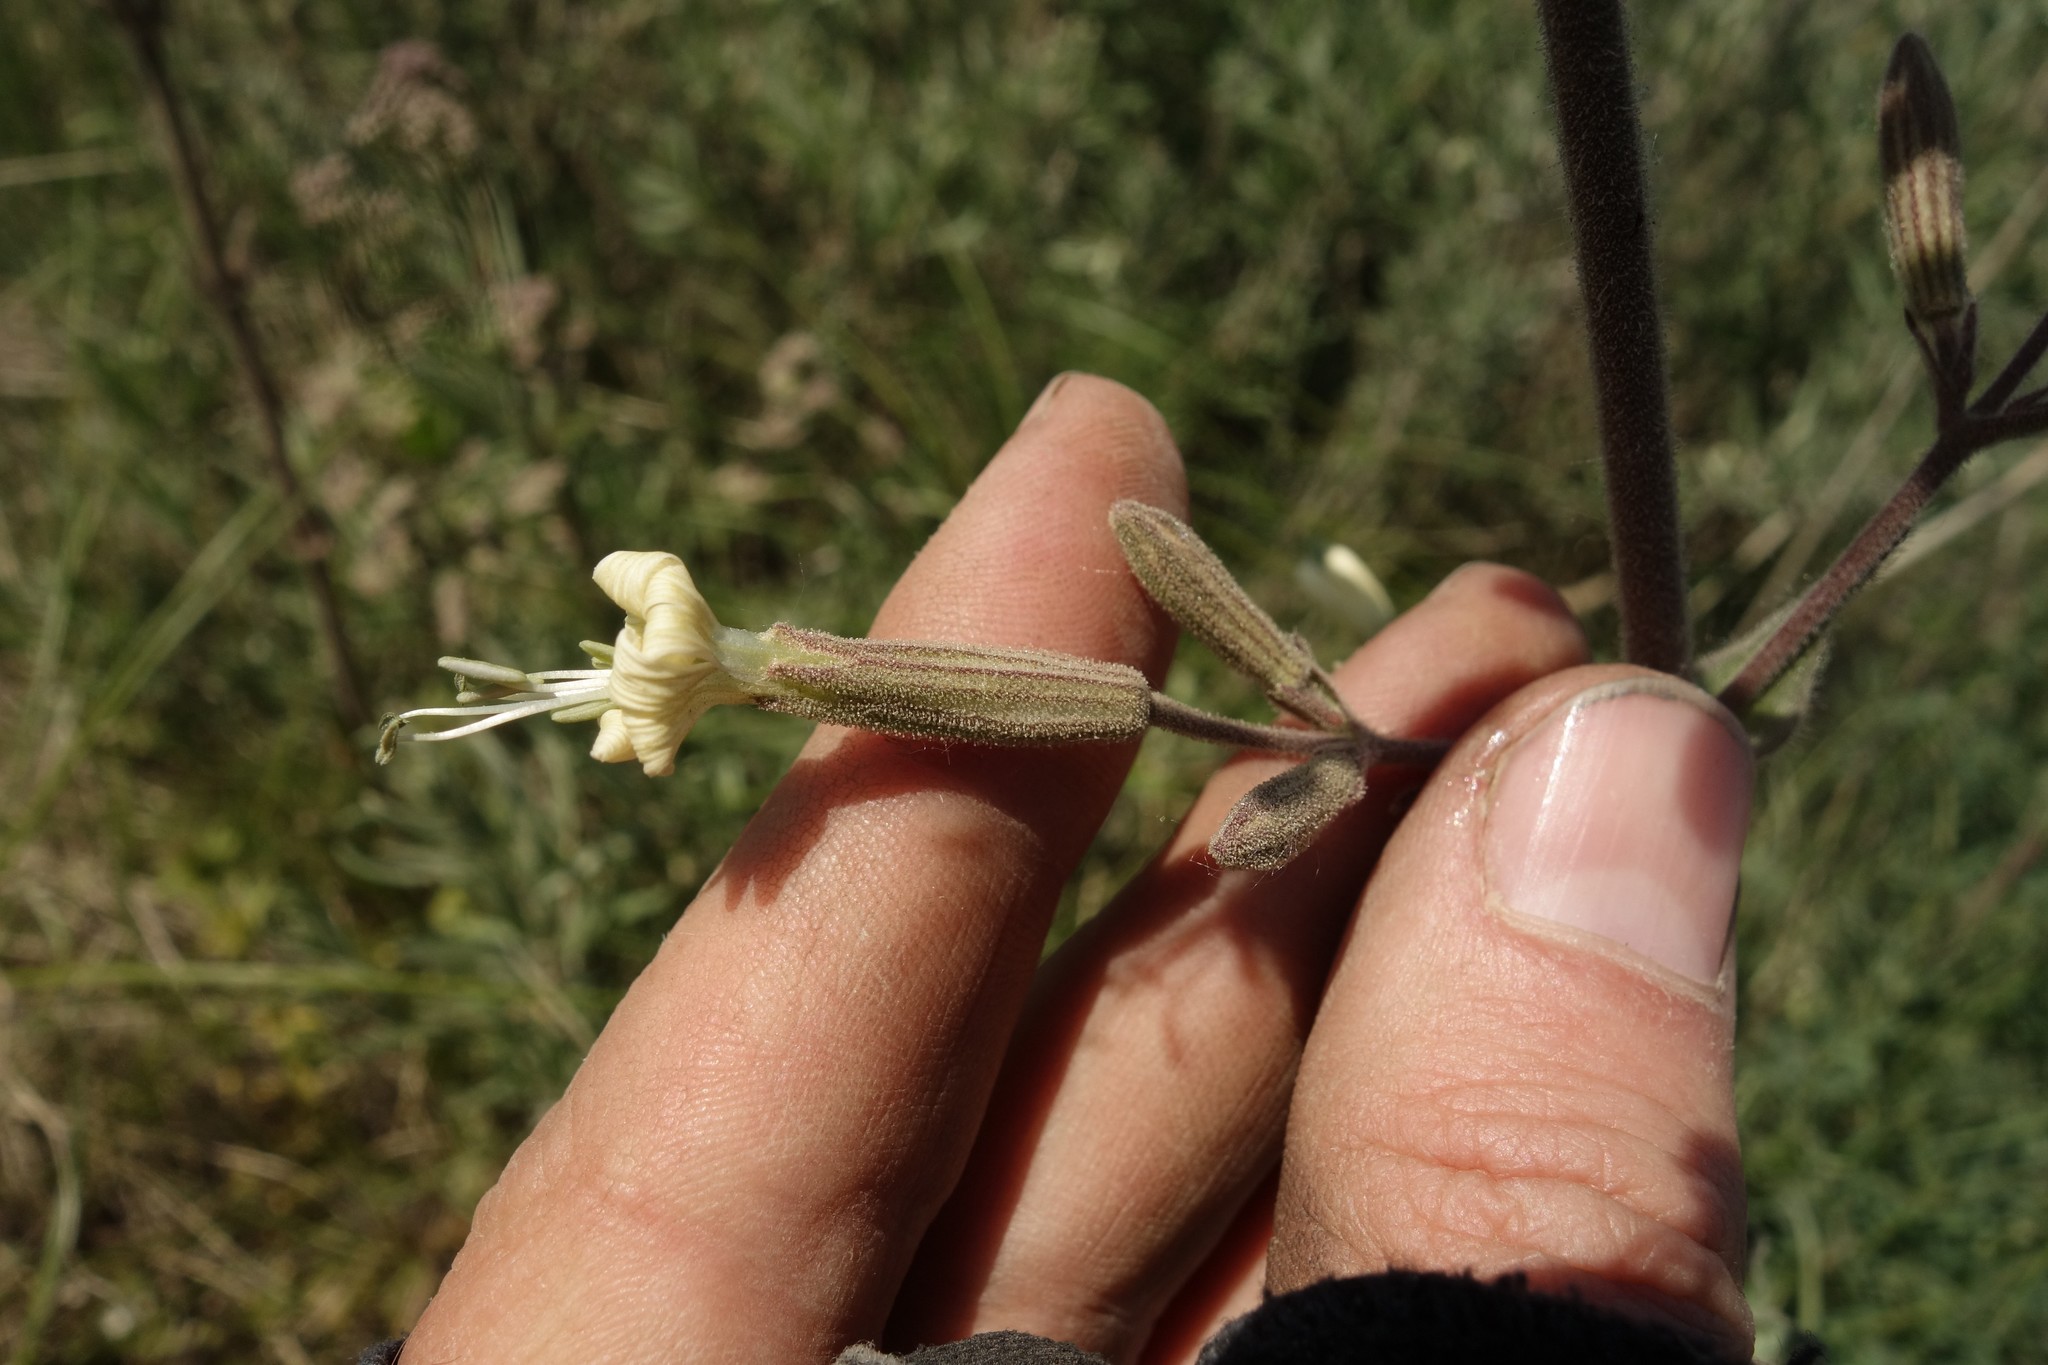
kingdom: Plantae
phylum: Tracheophyta
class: Magnoliopsida
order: Caryophyllales
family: Caryophyllaceae
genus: Silene
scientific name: Silene viscosa
